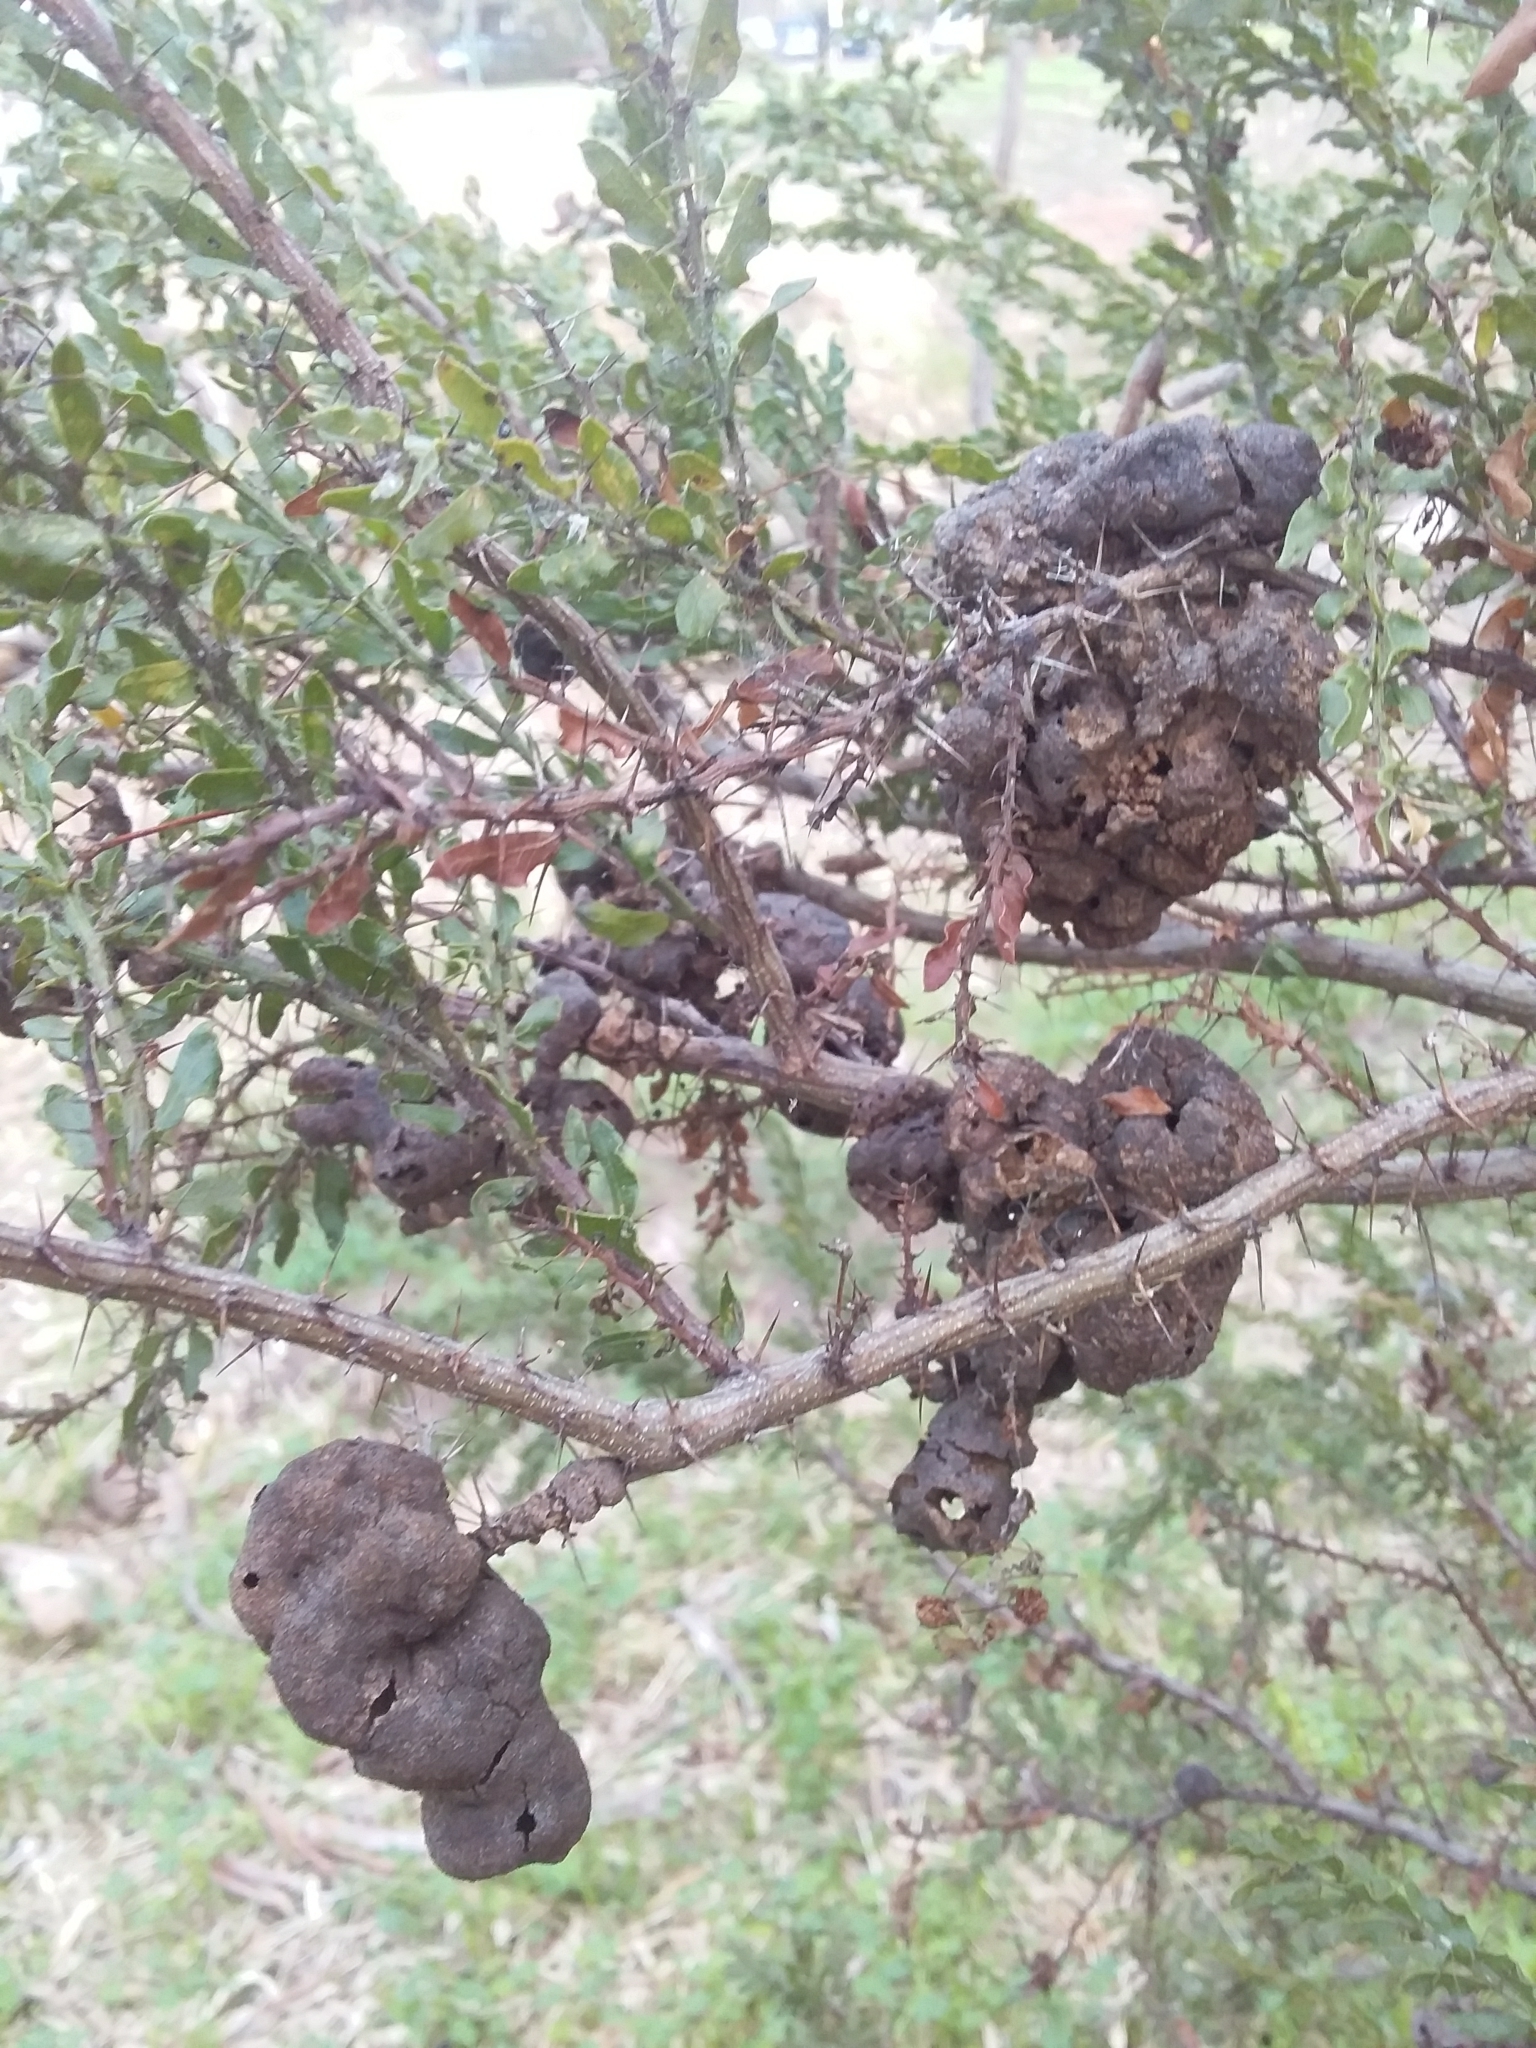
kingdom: Fungi
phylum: Basidiomycota
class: Pucciniomycetes
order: Pucciniales
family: Uromycladiaceae
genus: Uromycladium
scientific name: Uromycladium paradoxae
